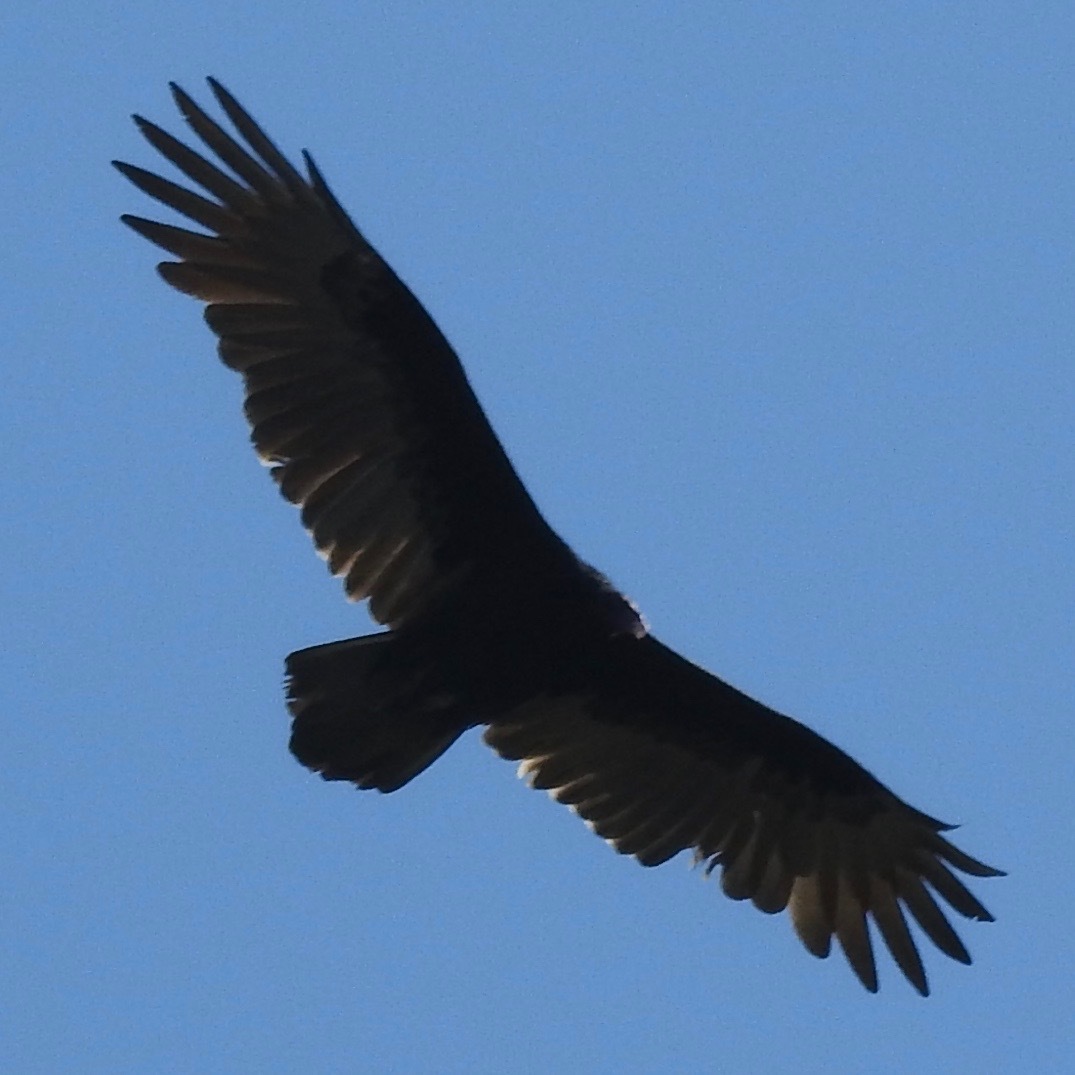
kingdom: Animalia
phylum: Chordata
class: Aves
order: Accipitriformes
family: Cathartidae
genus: Cathartes
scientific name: Cathartes aura
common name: Turkey vulture
